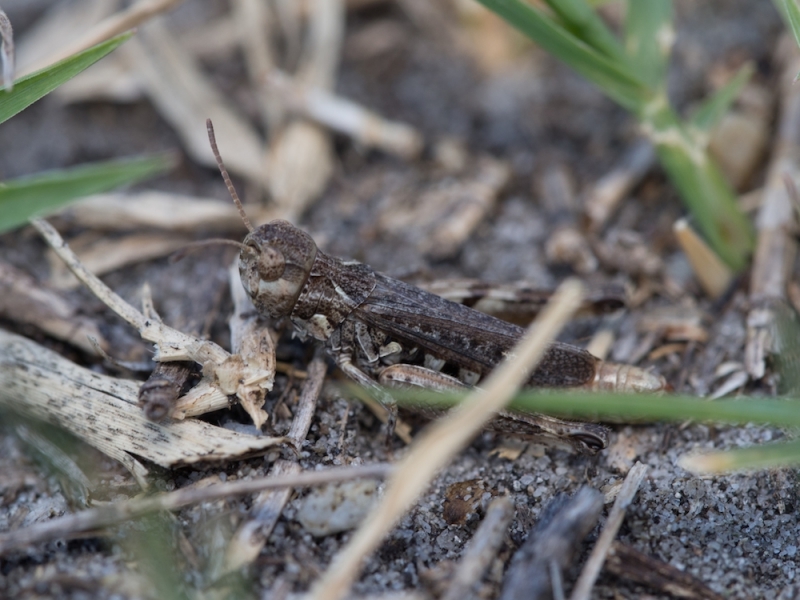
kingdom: Animalia
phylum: Arthropoda
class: Insecta
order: Orthoptera
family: Acrididae
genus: Omocestus
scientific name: Omocestus haemorrhoidalis
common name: Orange-tipped grasshopper
